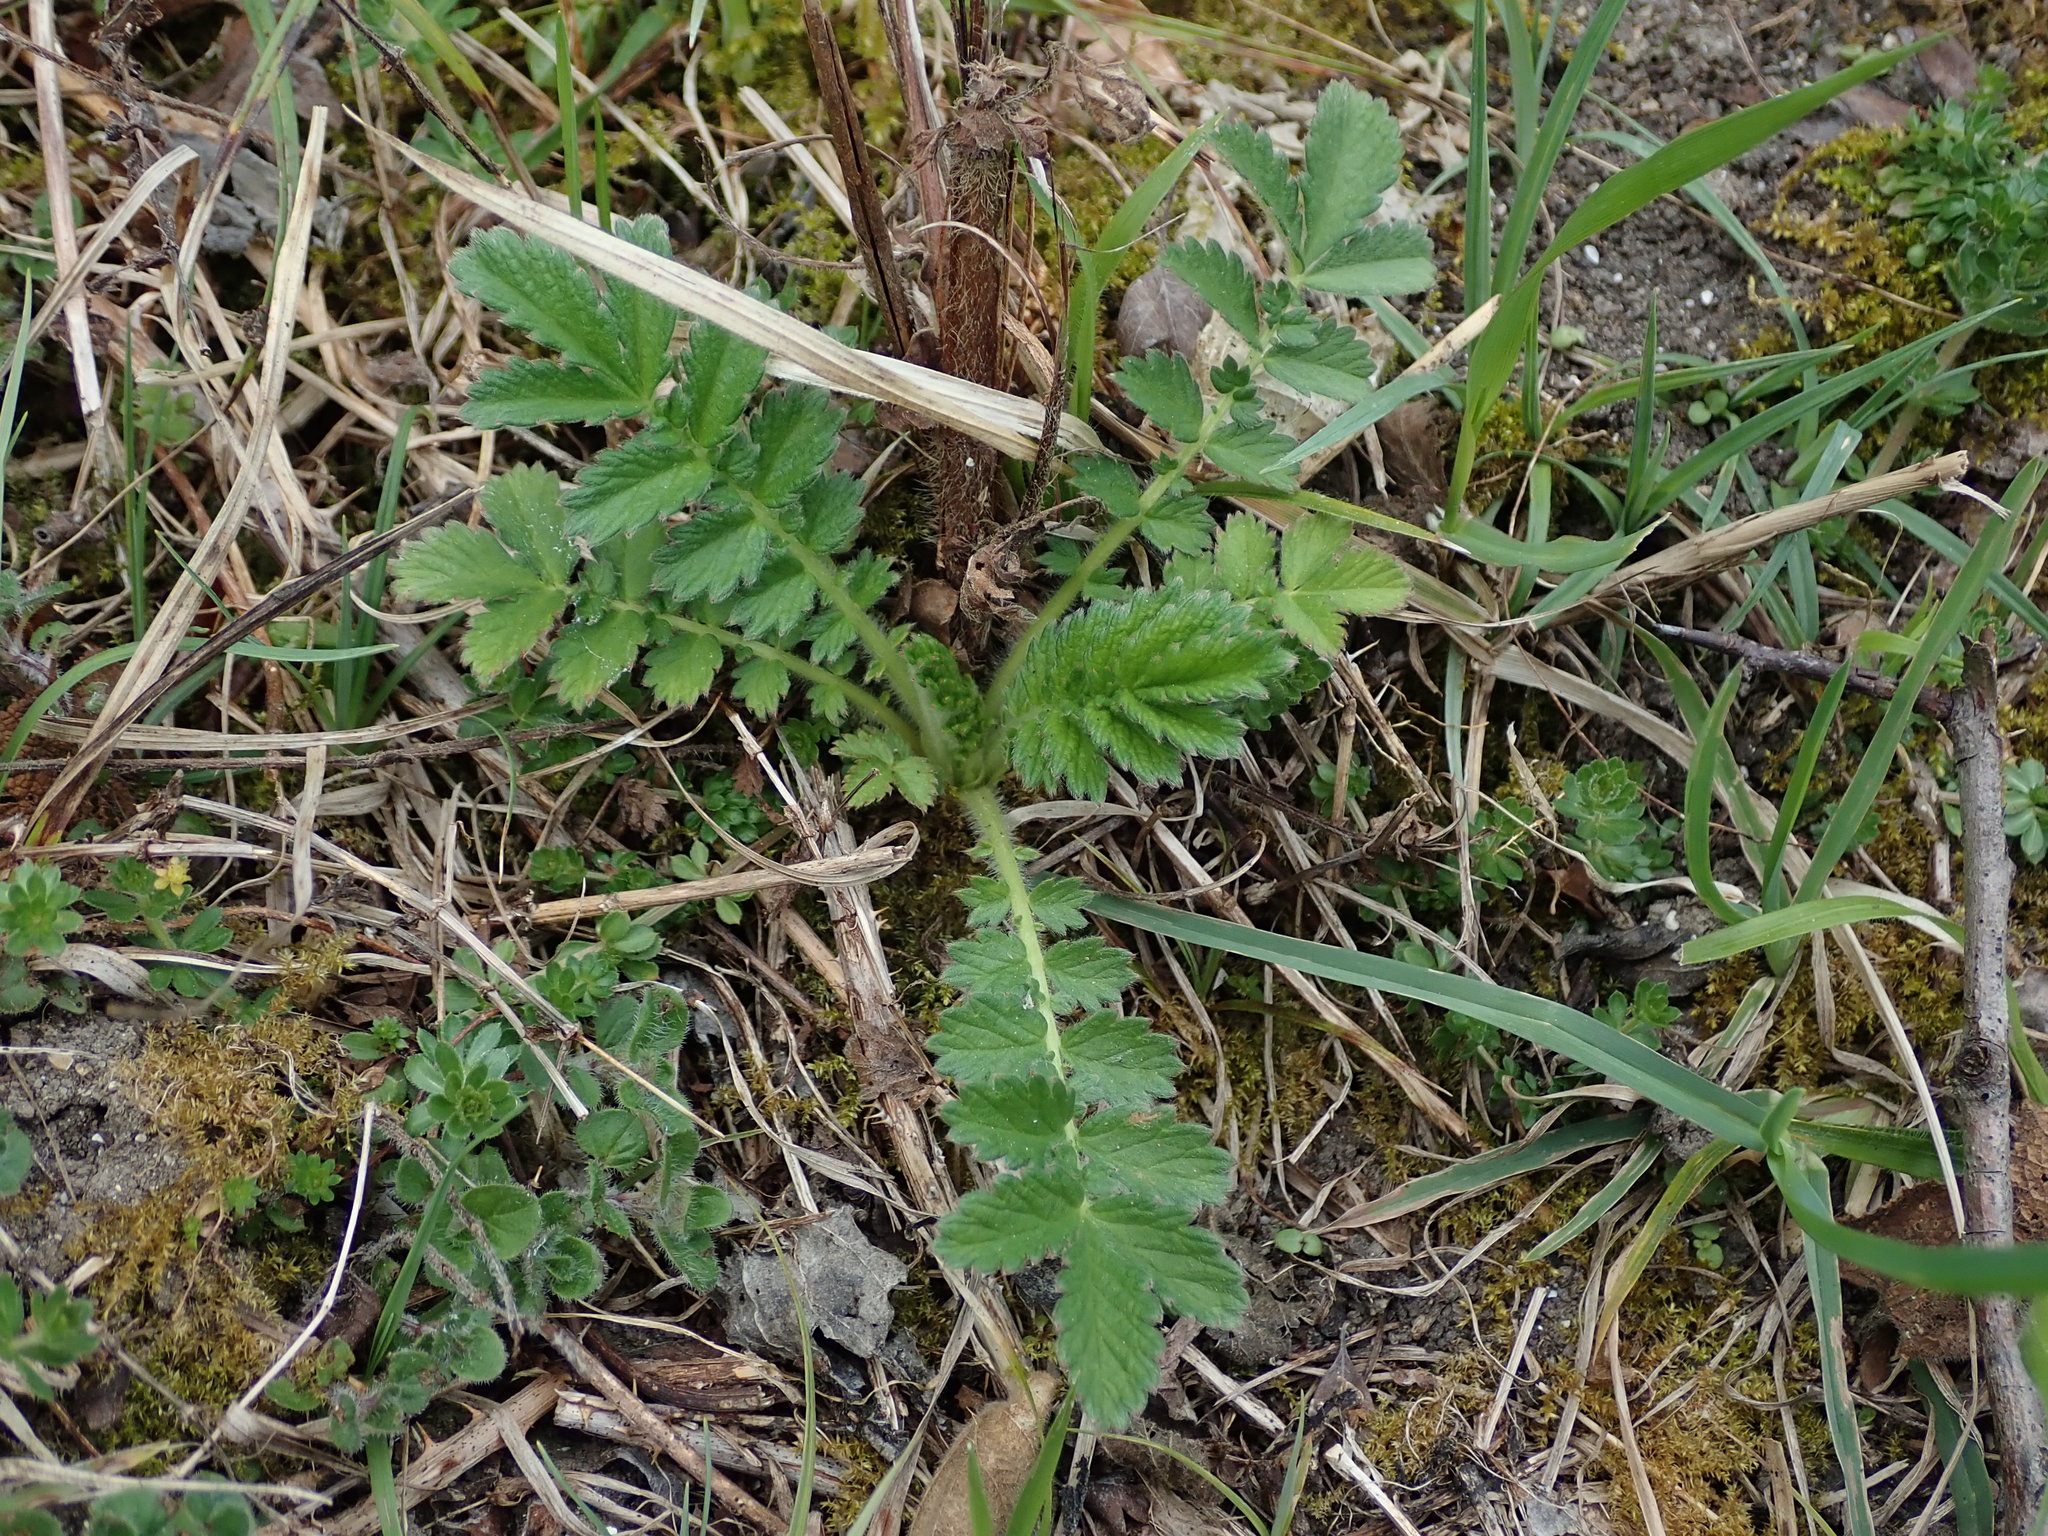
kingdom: Plantae
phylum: Tracheophyta
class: Magnoliopsida
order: Rosales
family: Rosaceae
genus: Agrimonia
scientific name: Agrimonia eupatoria
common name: Agrimony
